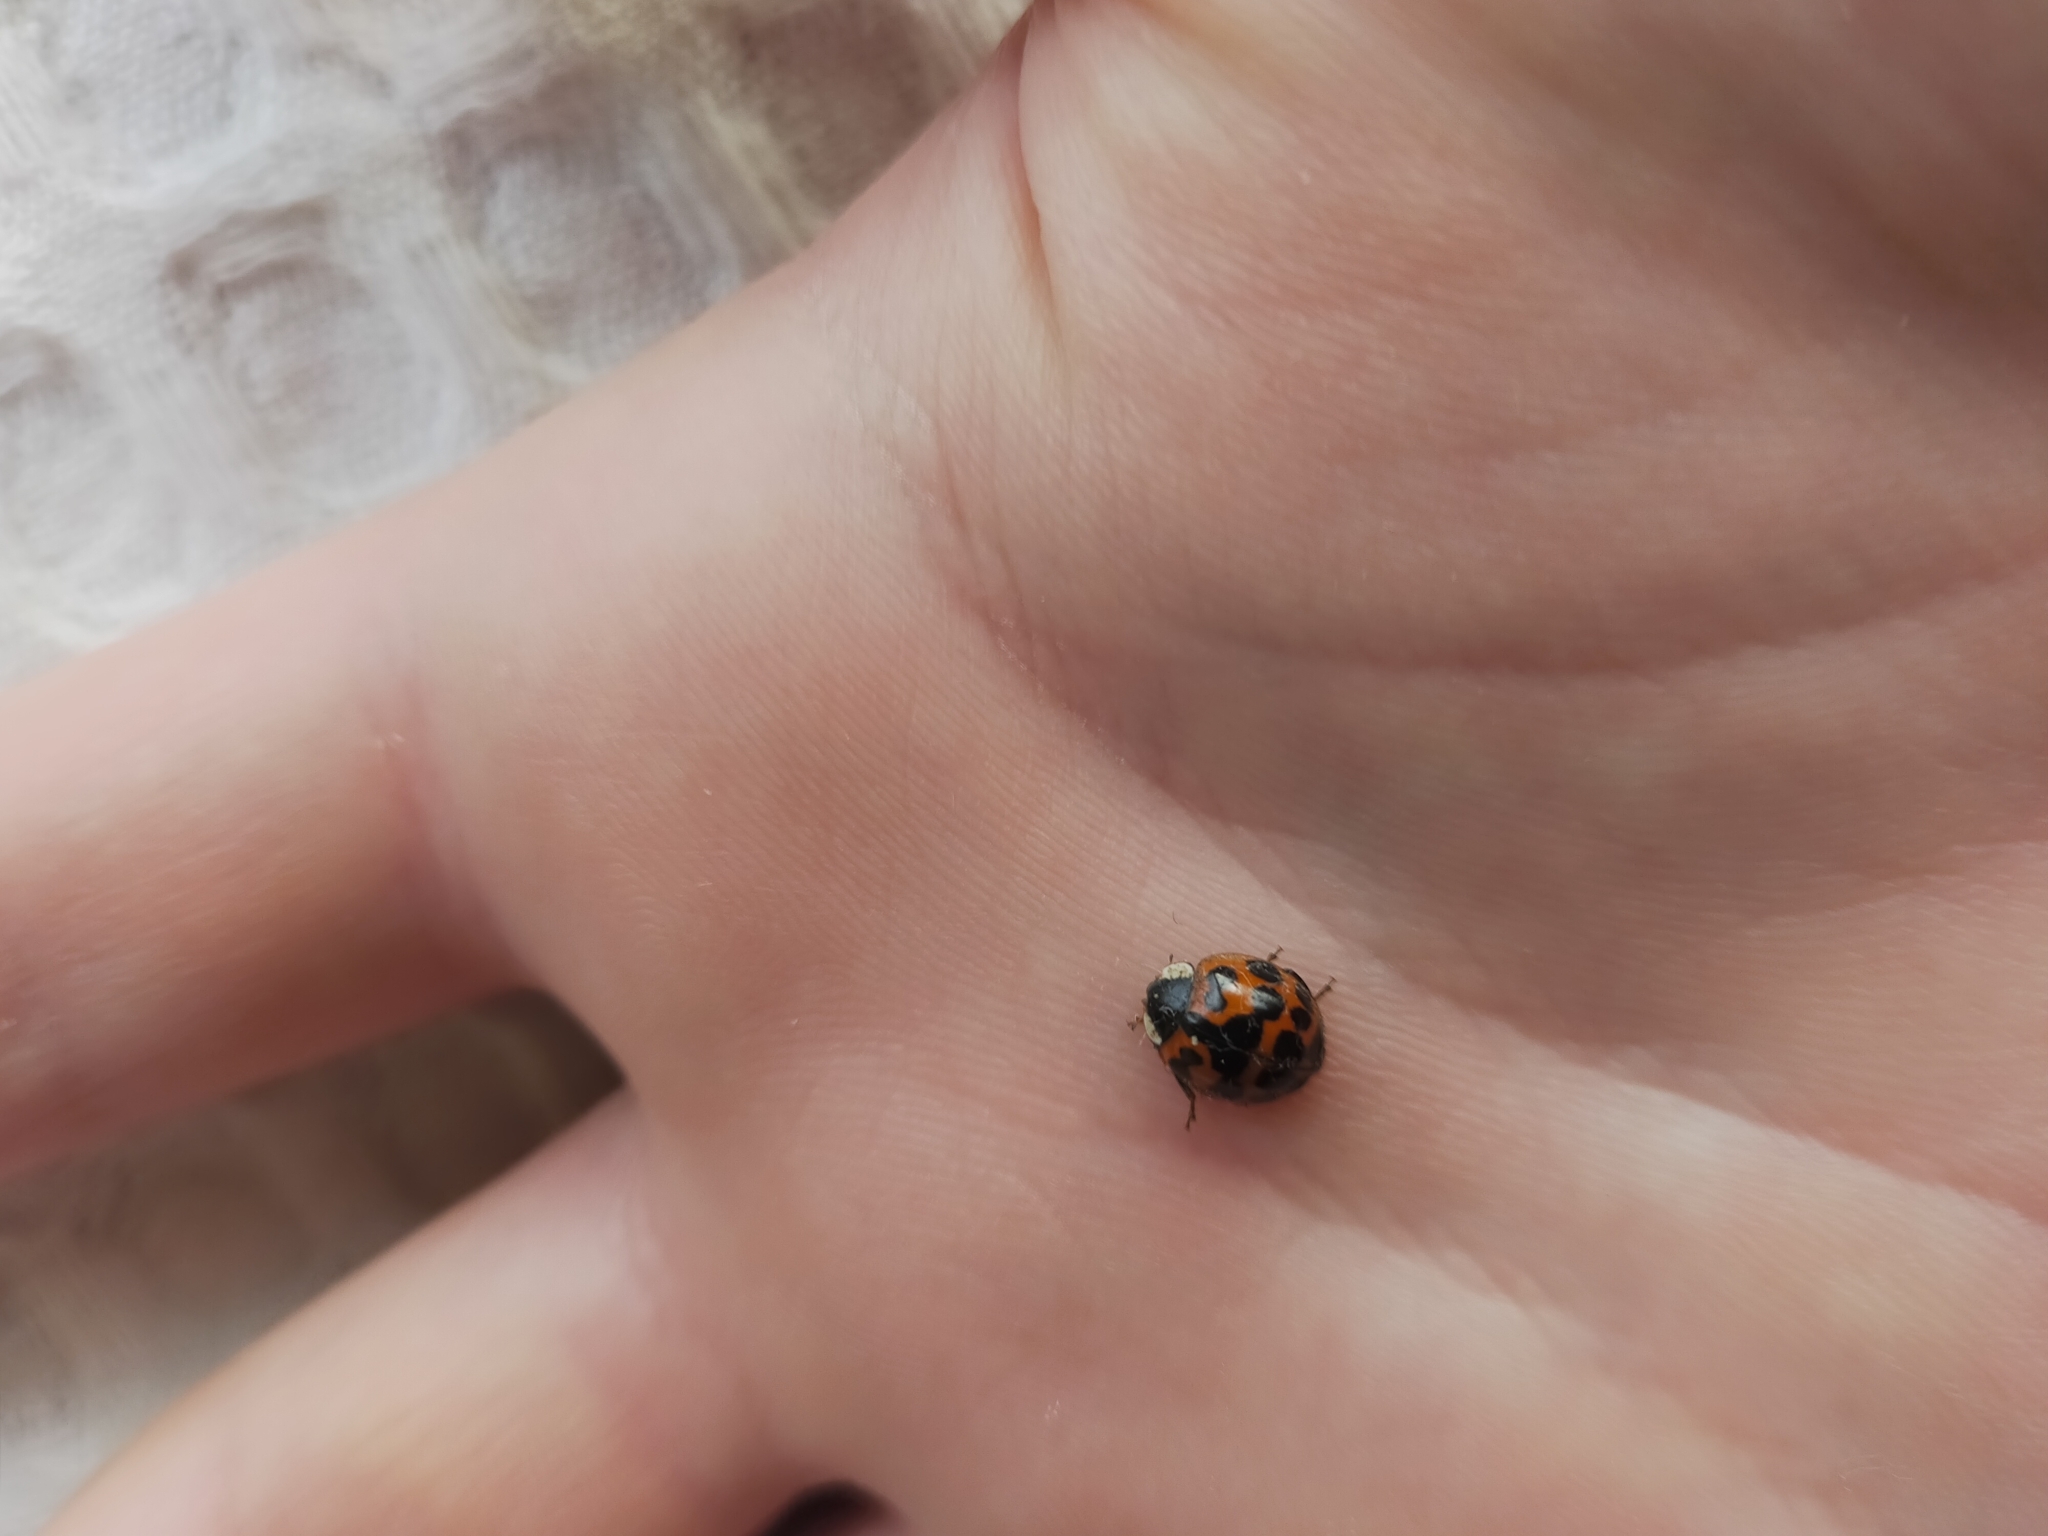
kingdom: Animalia
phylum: Arthropoda
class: Insecta
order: Coleoptera
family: Coccinellidae
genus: Harmonia
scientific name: Harmonia axyridis
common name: Harlequin ladybird
